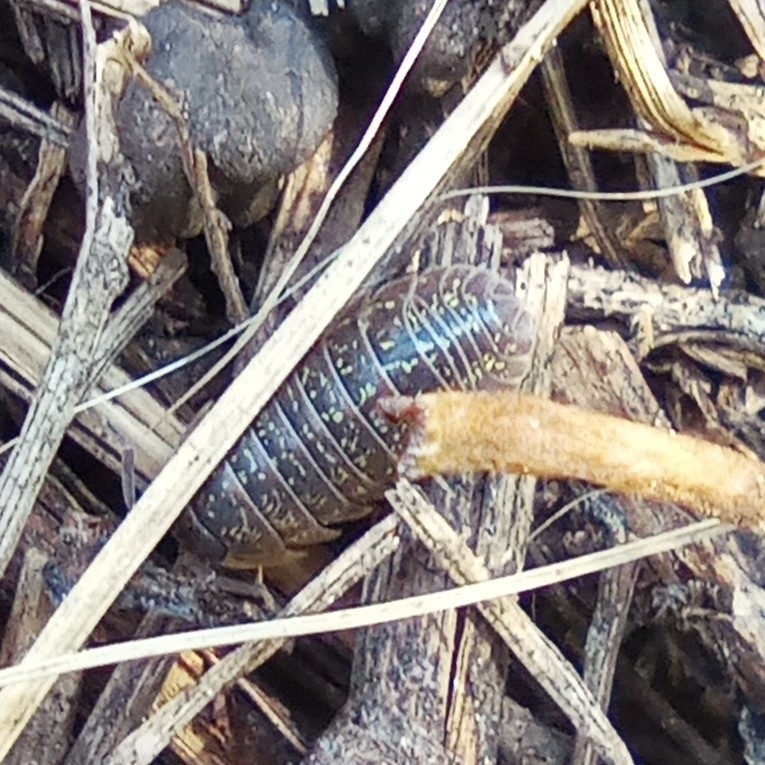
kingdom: Animalia
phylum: Arthropoda
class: Malacostraca
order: Isopoda
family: Armadillidiidae
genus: Armadillidium
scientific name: Armadillidium versicolor
